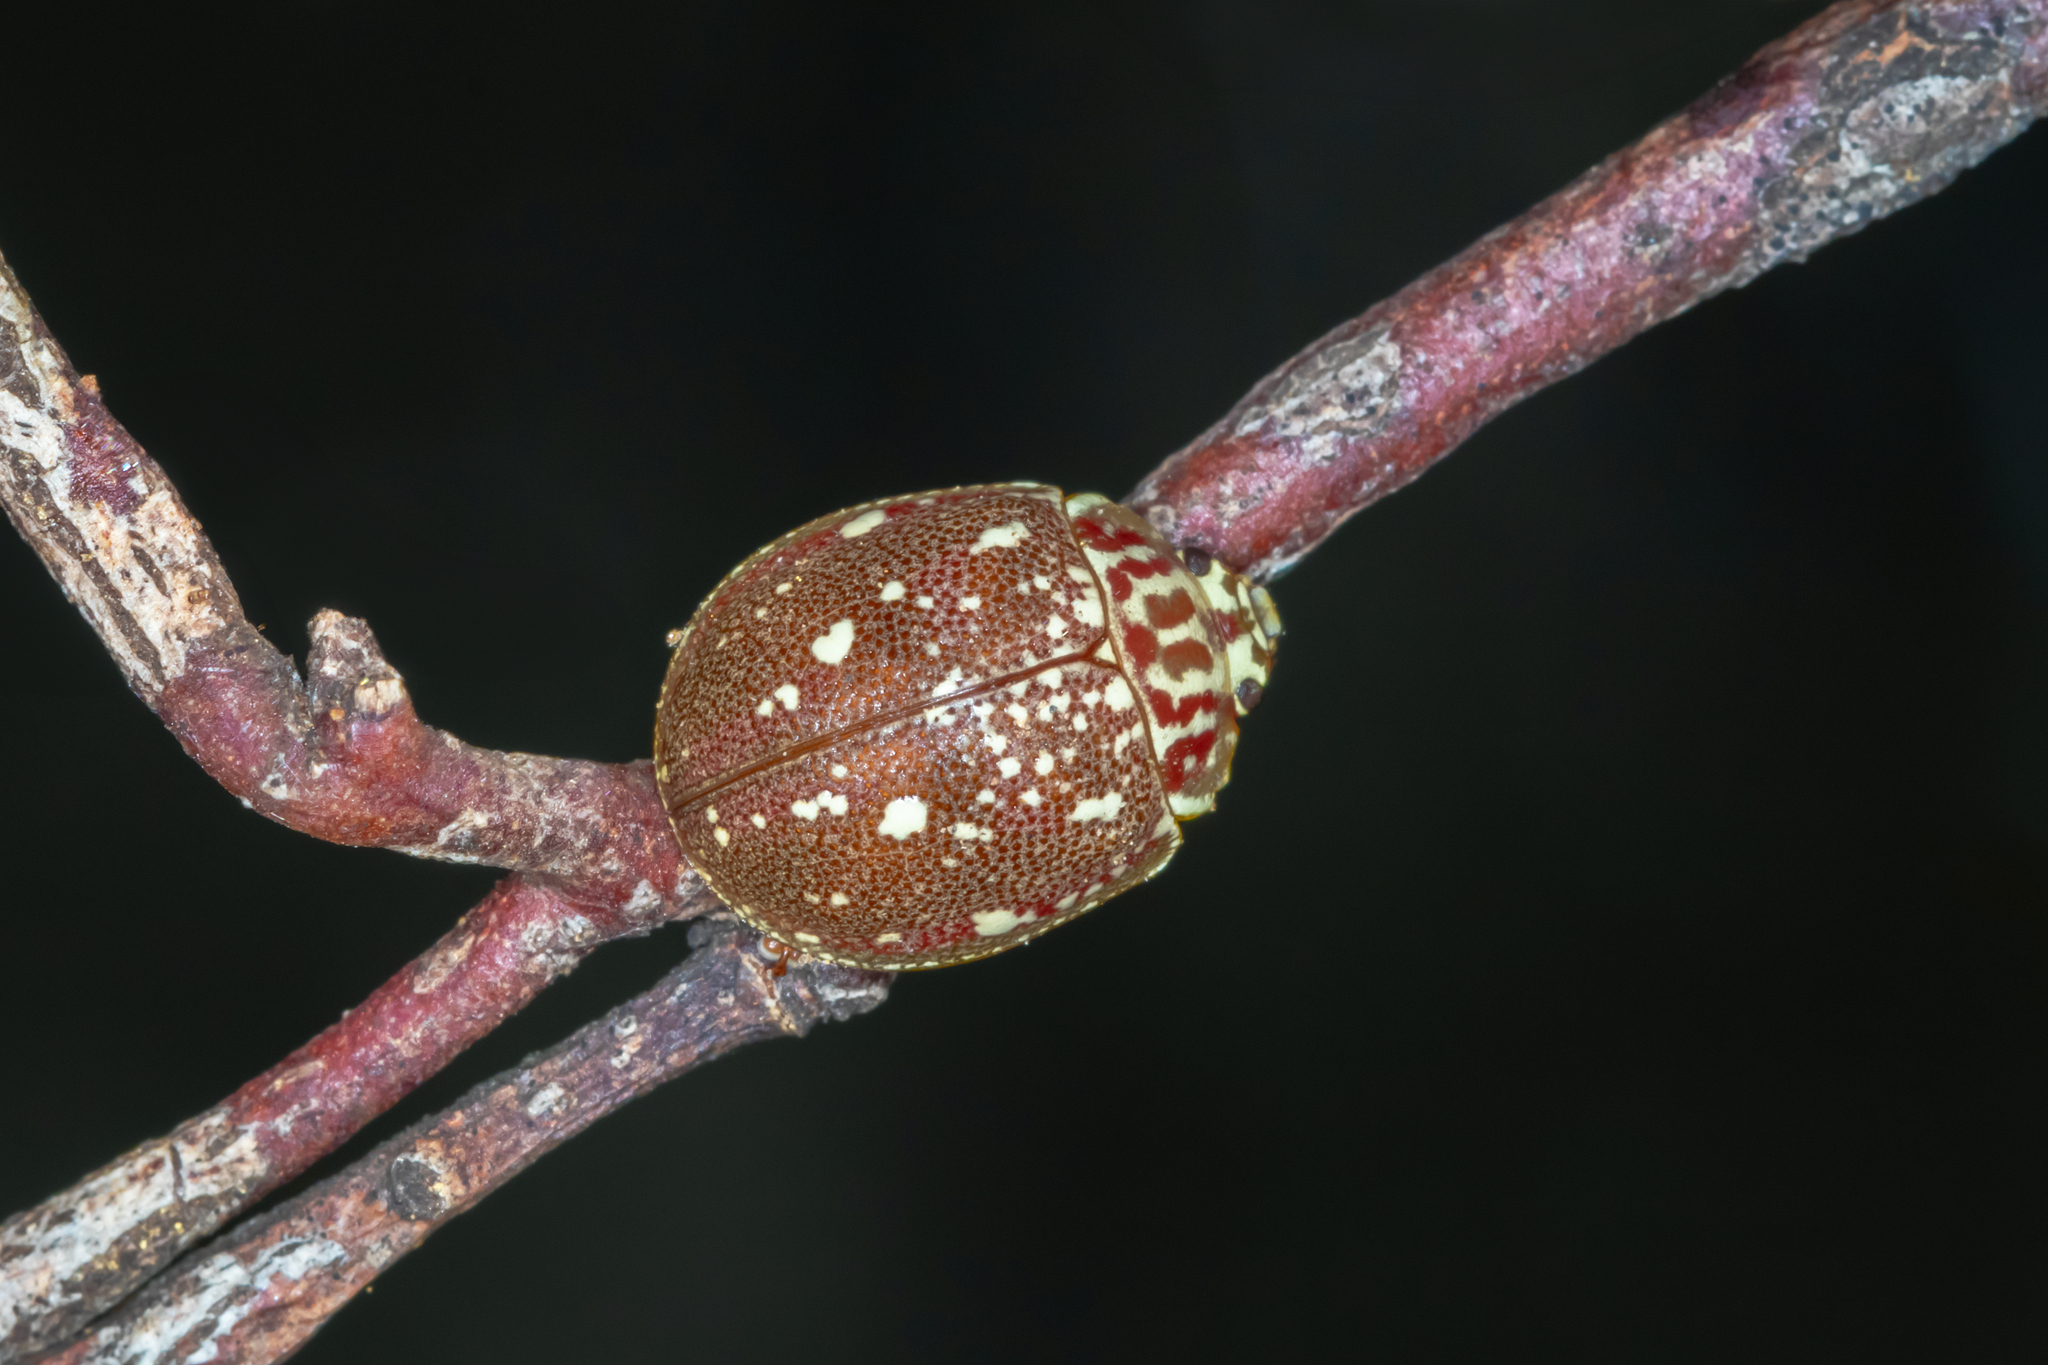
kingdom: Animalia
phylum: Arthropoda
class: Insecta
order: Coleoptera
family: Chrysomelidae
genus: Paropsis
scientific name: Paropsis
